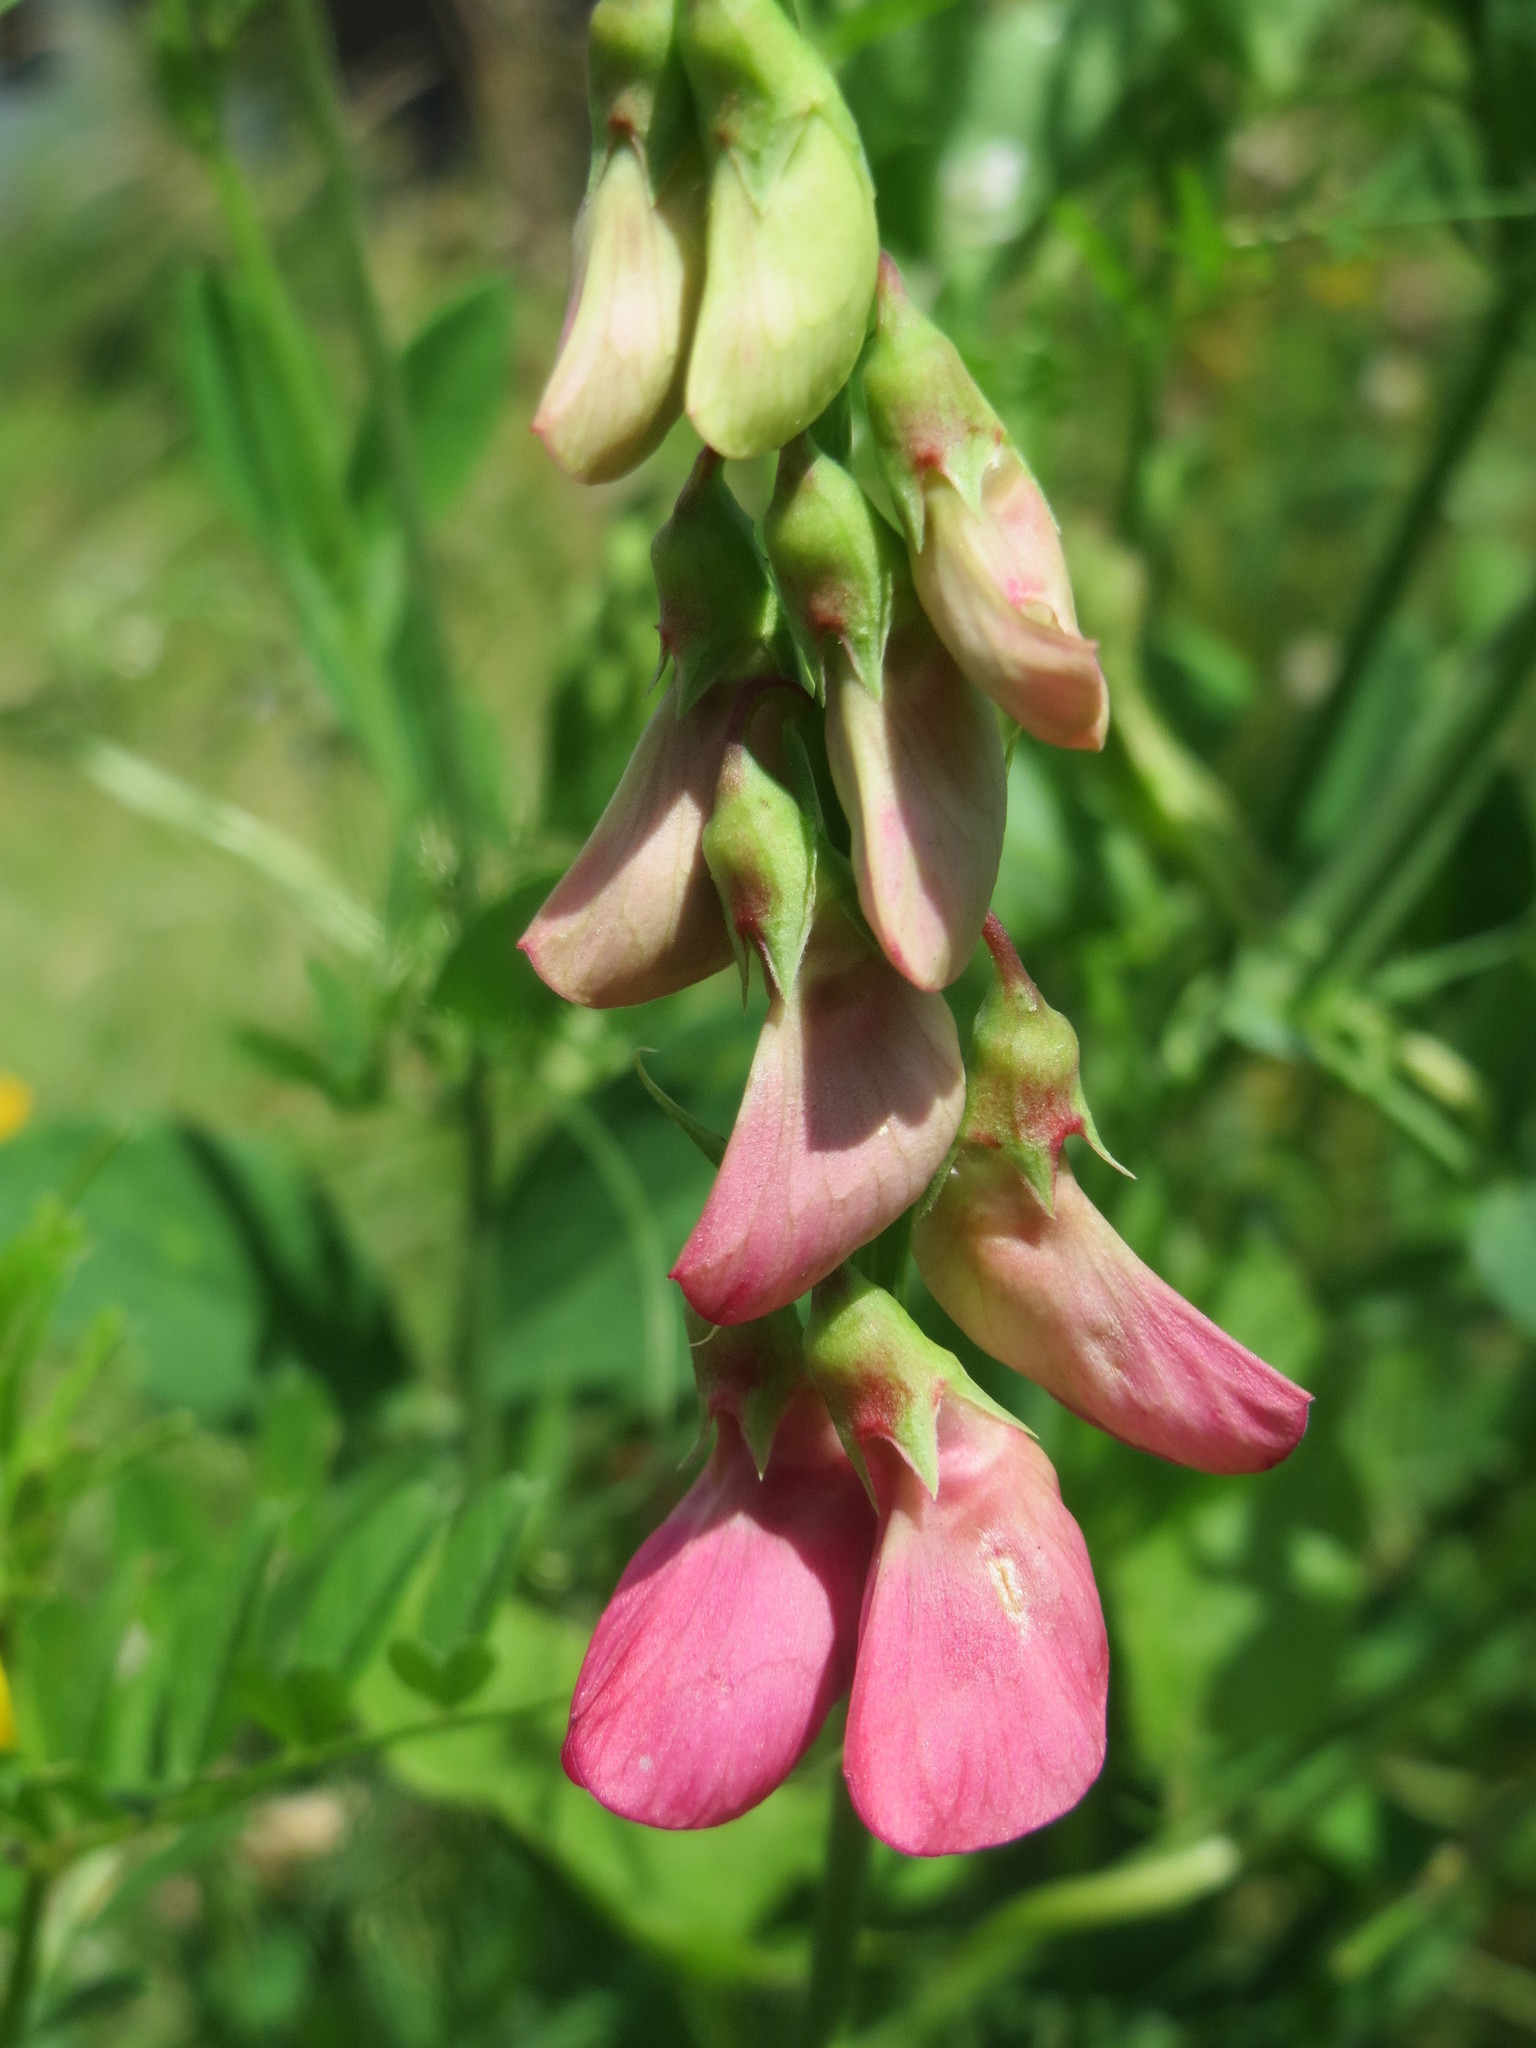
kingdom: Plantae
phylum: Tracheophyta
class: Magnoliopsida
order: Fabales
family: Fabaceae
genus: Lathyrus
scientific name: Lathyrus tuberosus
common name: Tuberous pea
